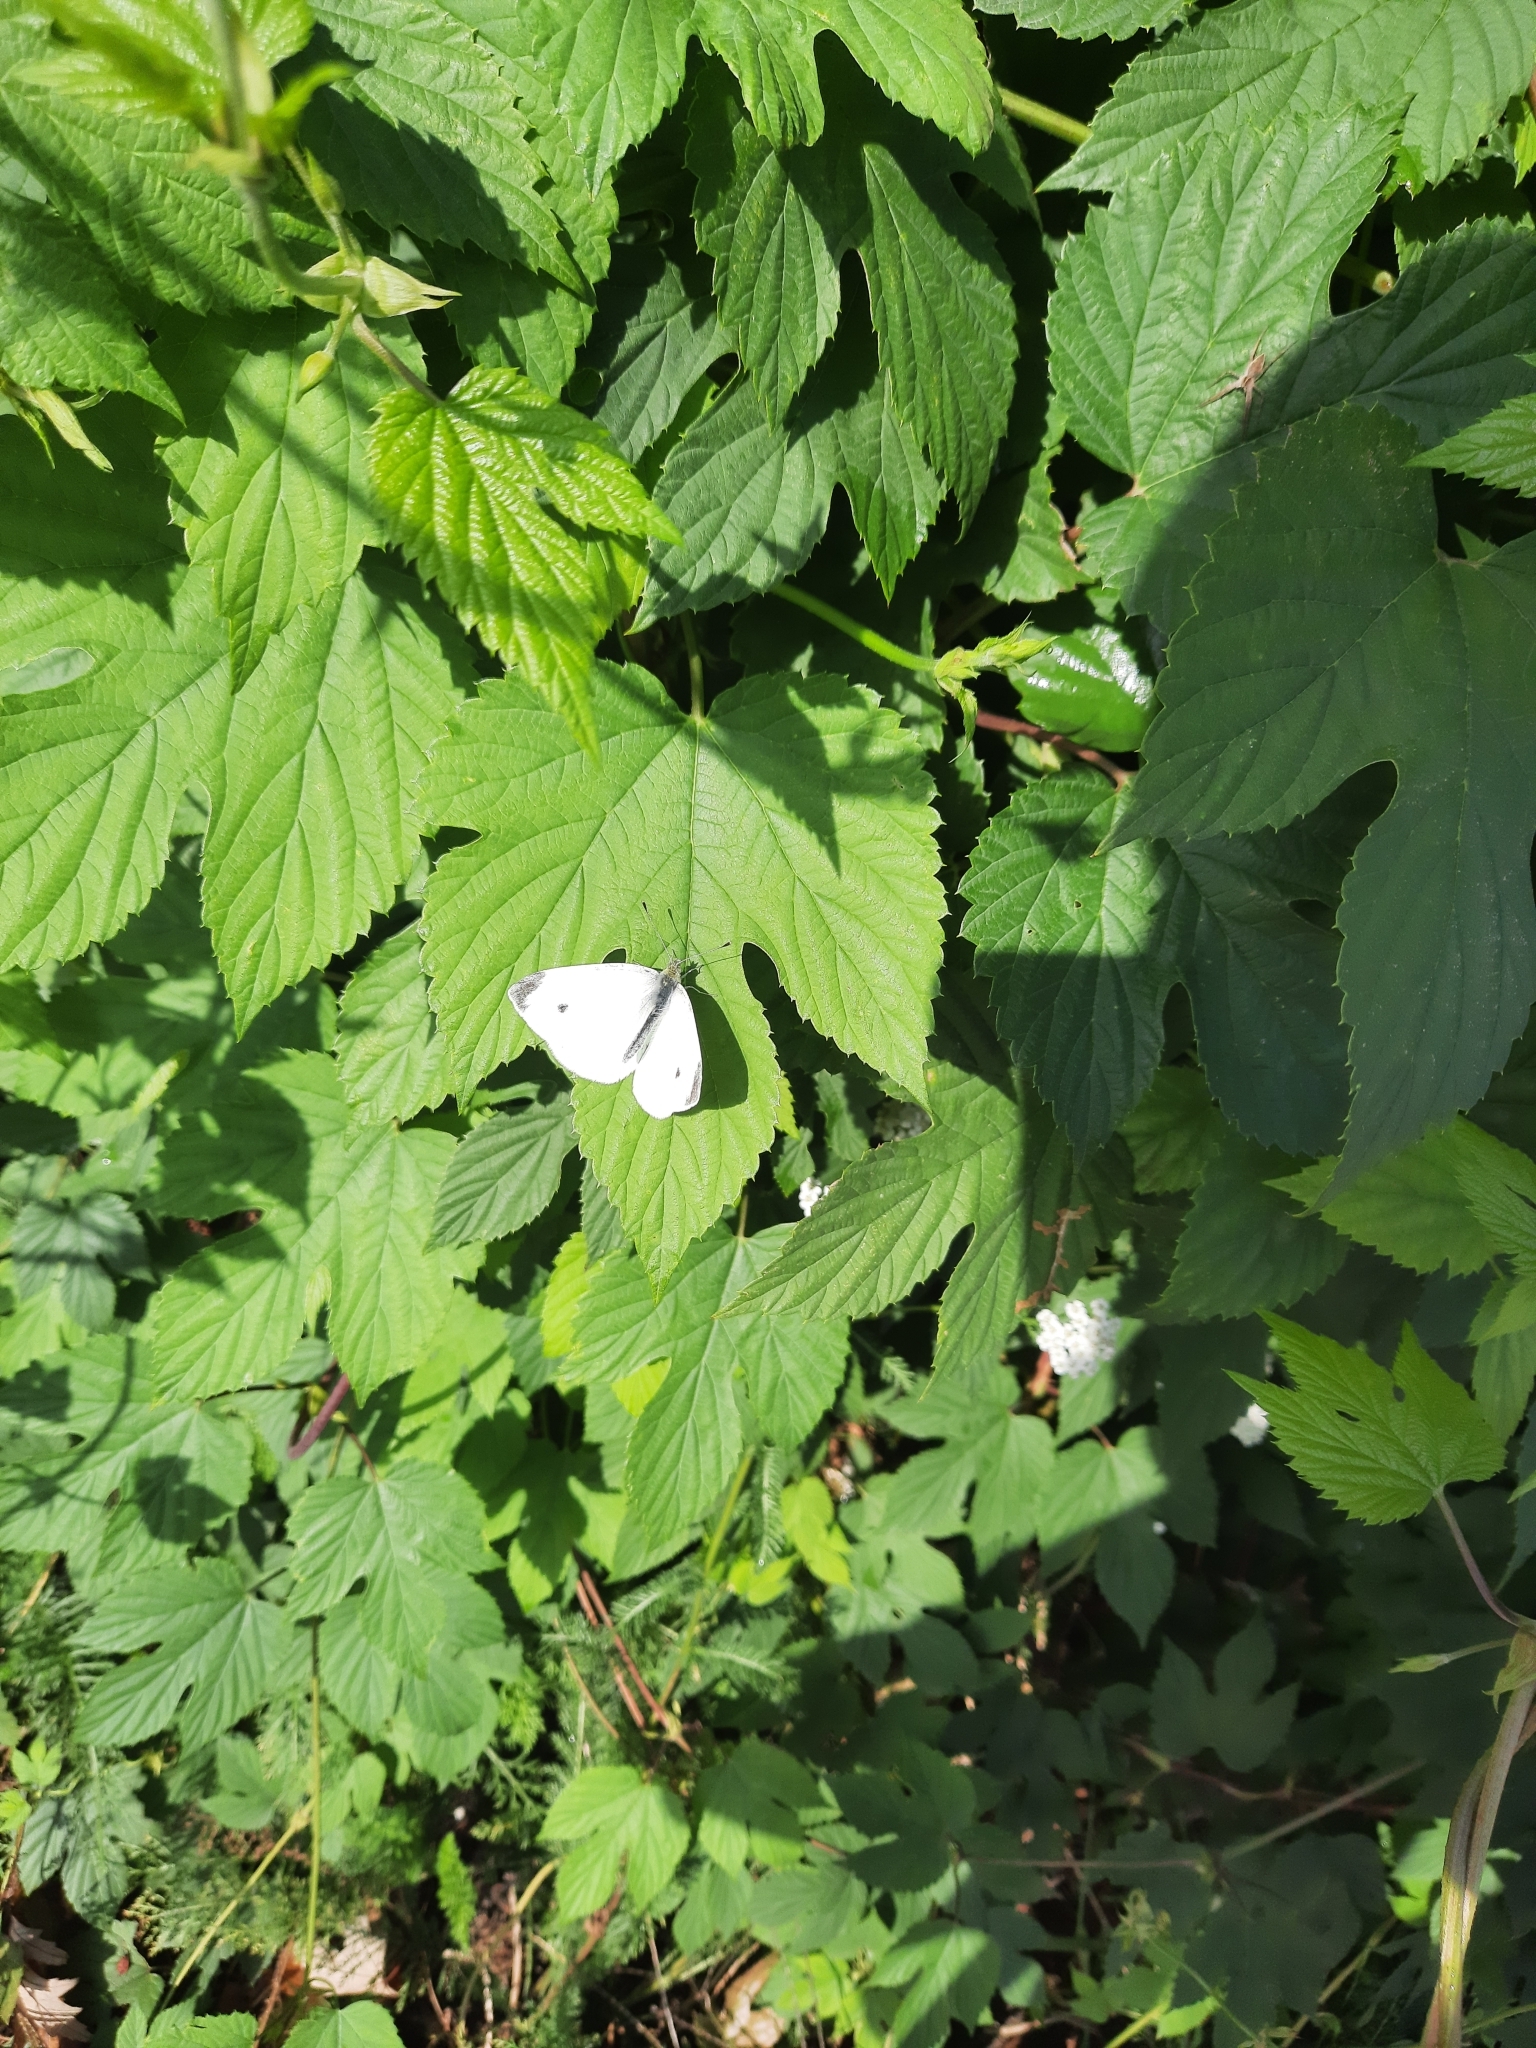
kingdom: Animalia
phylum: Arthropoda
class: Insecta
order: Lepidoptera
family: Pieridae
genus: Pieris
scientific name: Pieris rapae
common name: Small white
